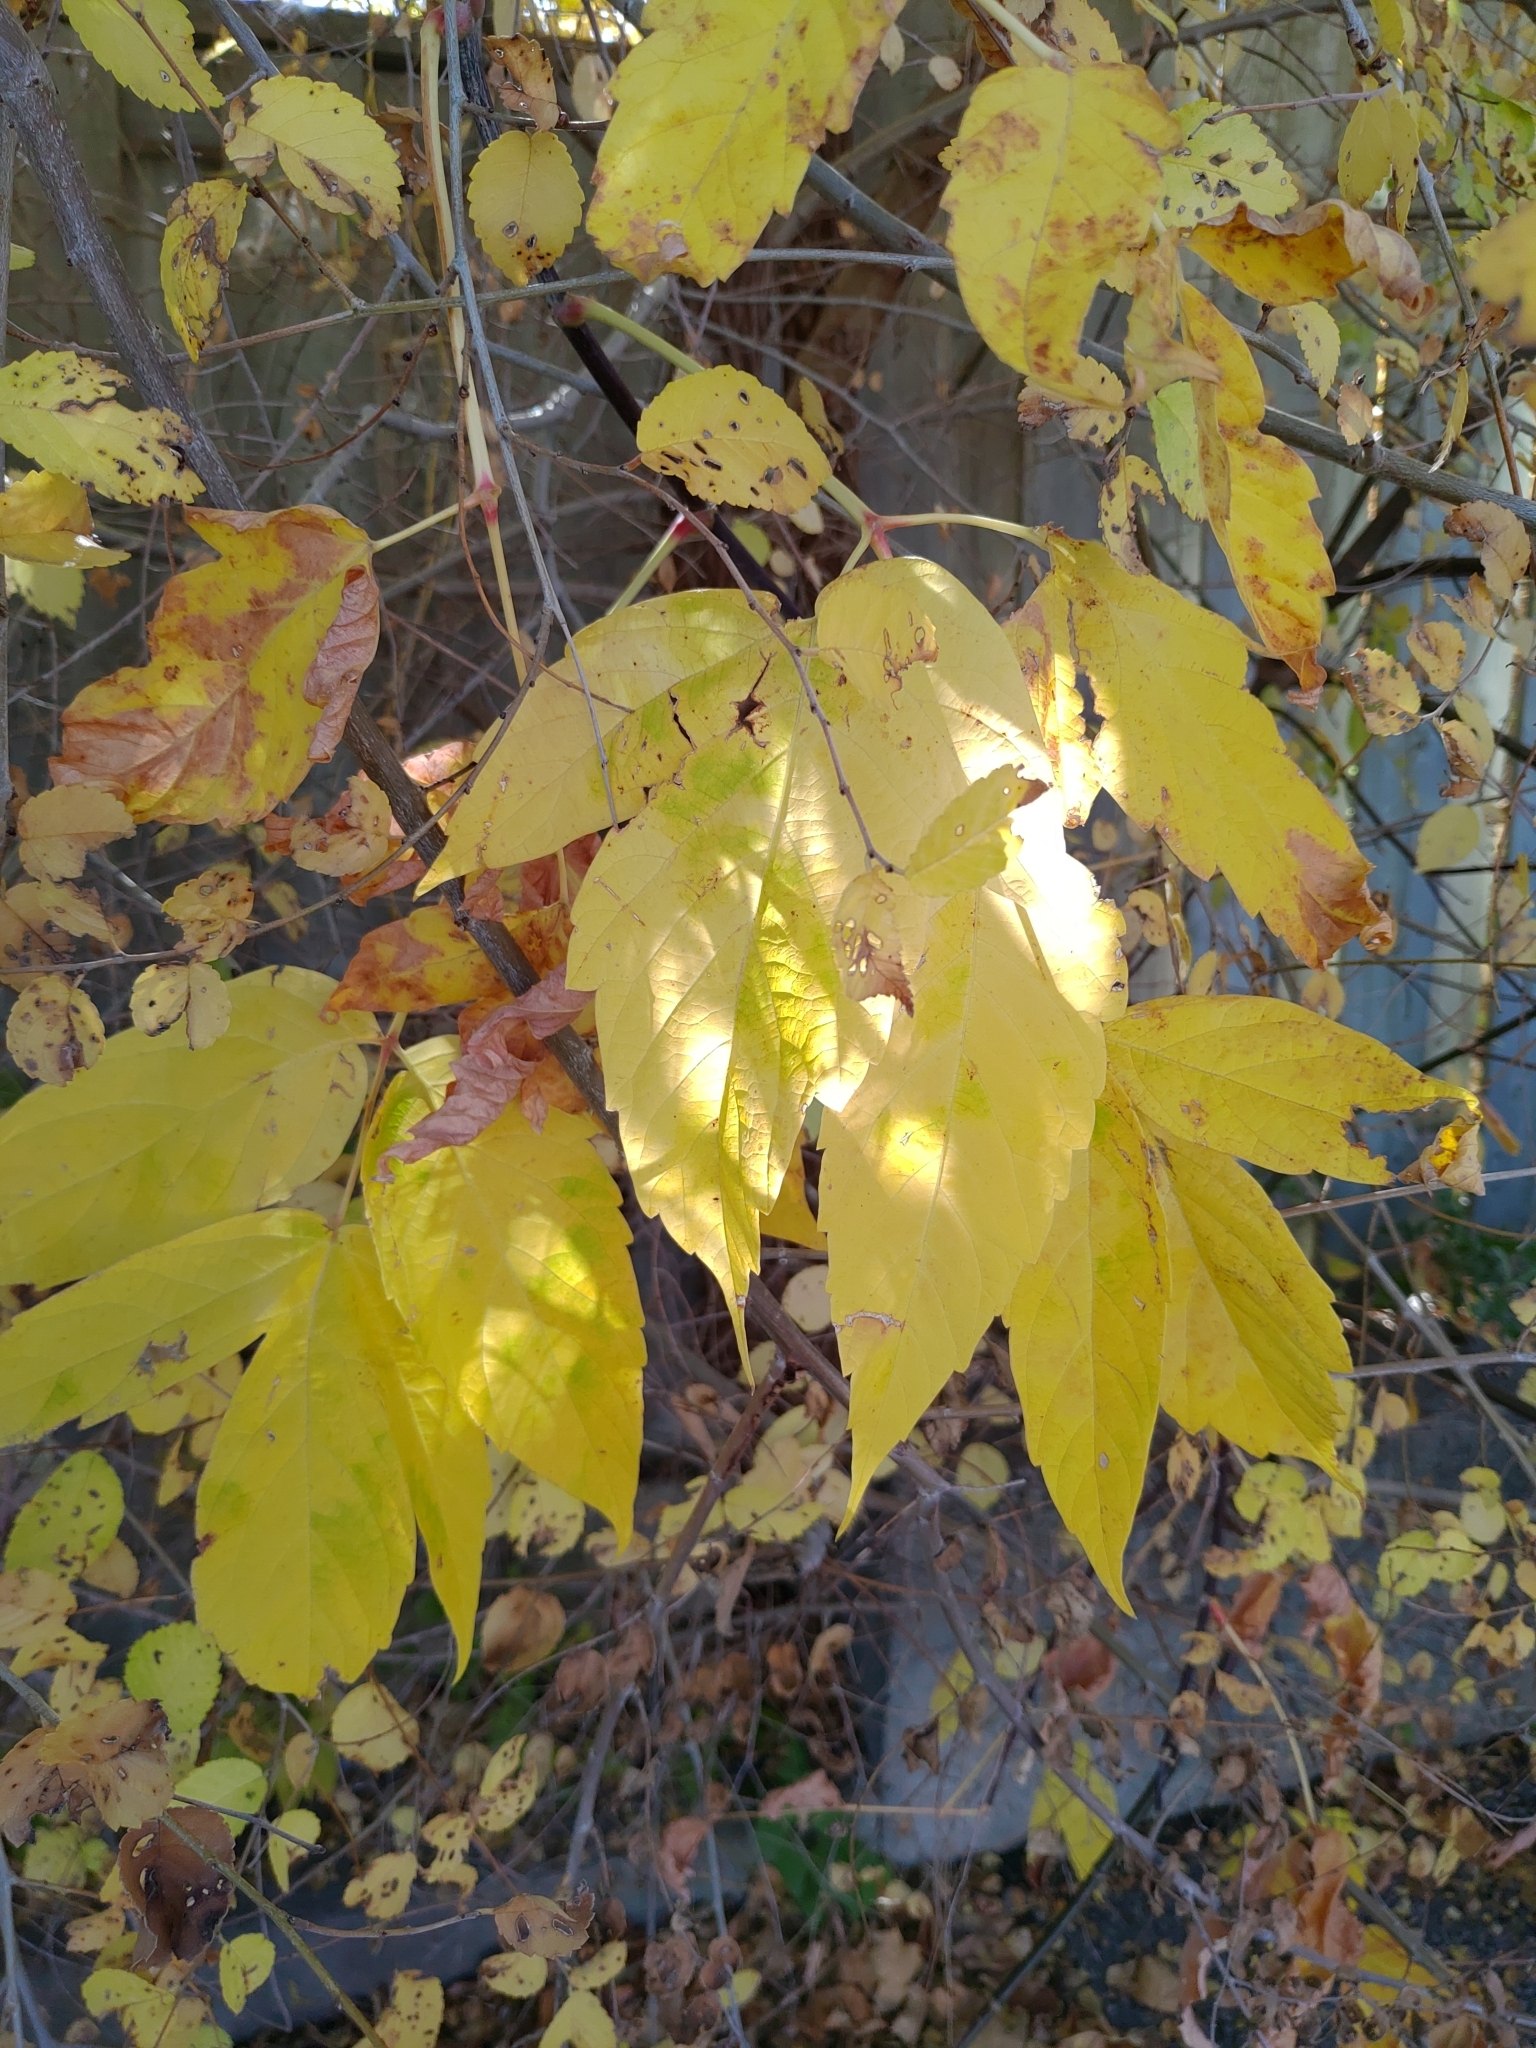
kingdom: Plantae
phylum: Tracheophyta
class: Magnoliopsida
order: Sapindales
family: Sapindaceae
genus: Acer
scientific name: Acer negundo
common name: Ashleaf maple
